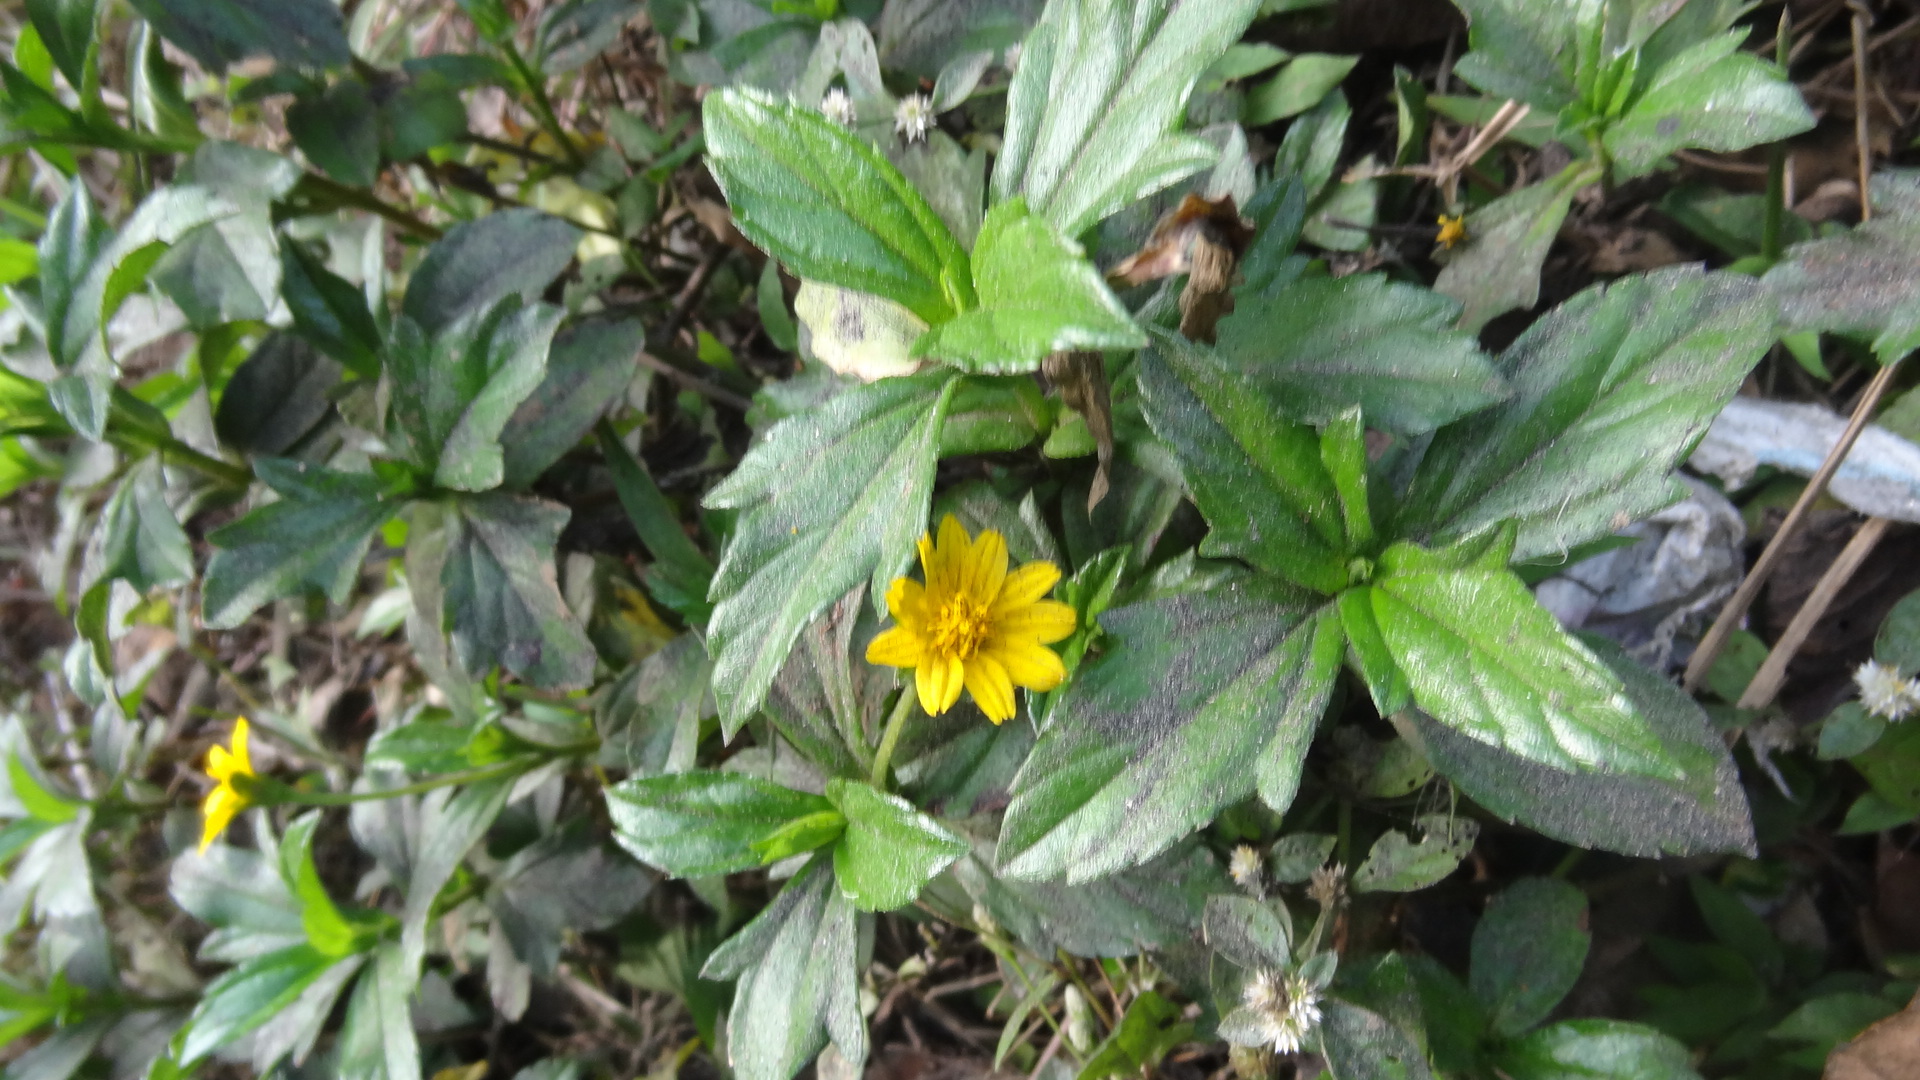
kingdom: Plantae
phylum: Tracheophyta
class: Magnoliopsida
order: Asterales
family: Asteraceae
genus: Sphagneticola
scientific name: Sphagneticola trilobata
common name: Bay biscayne creeping-oxeye
